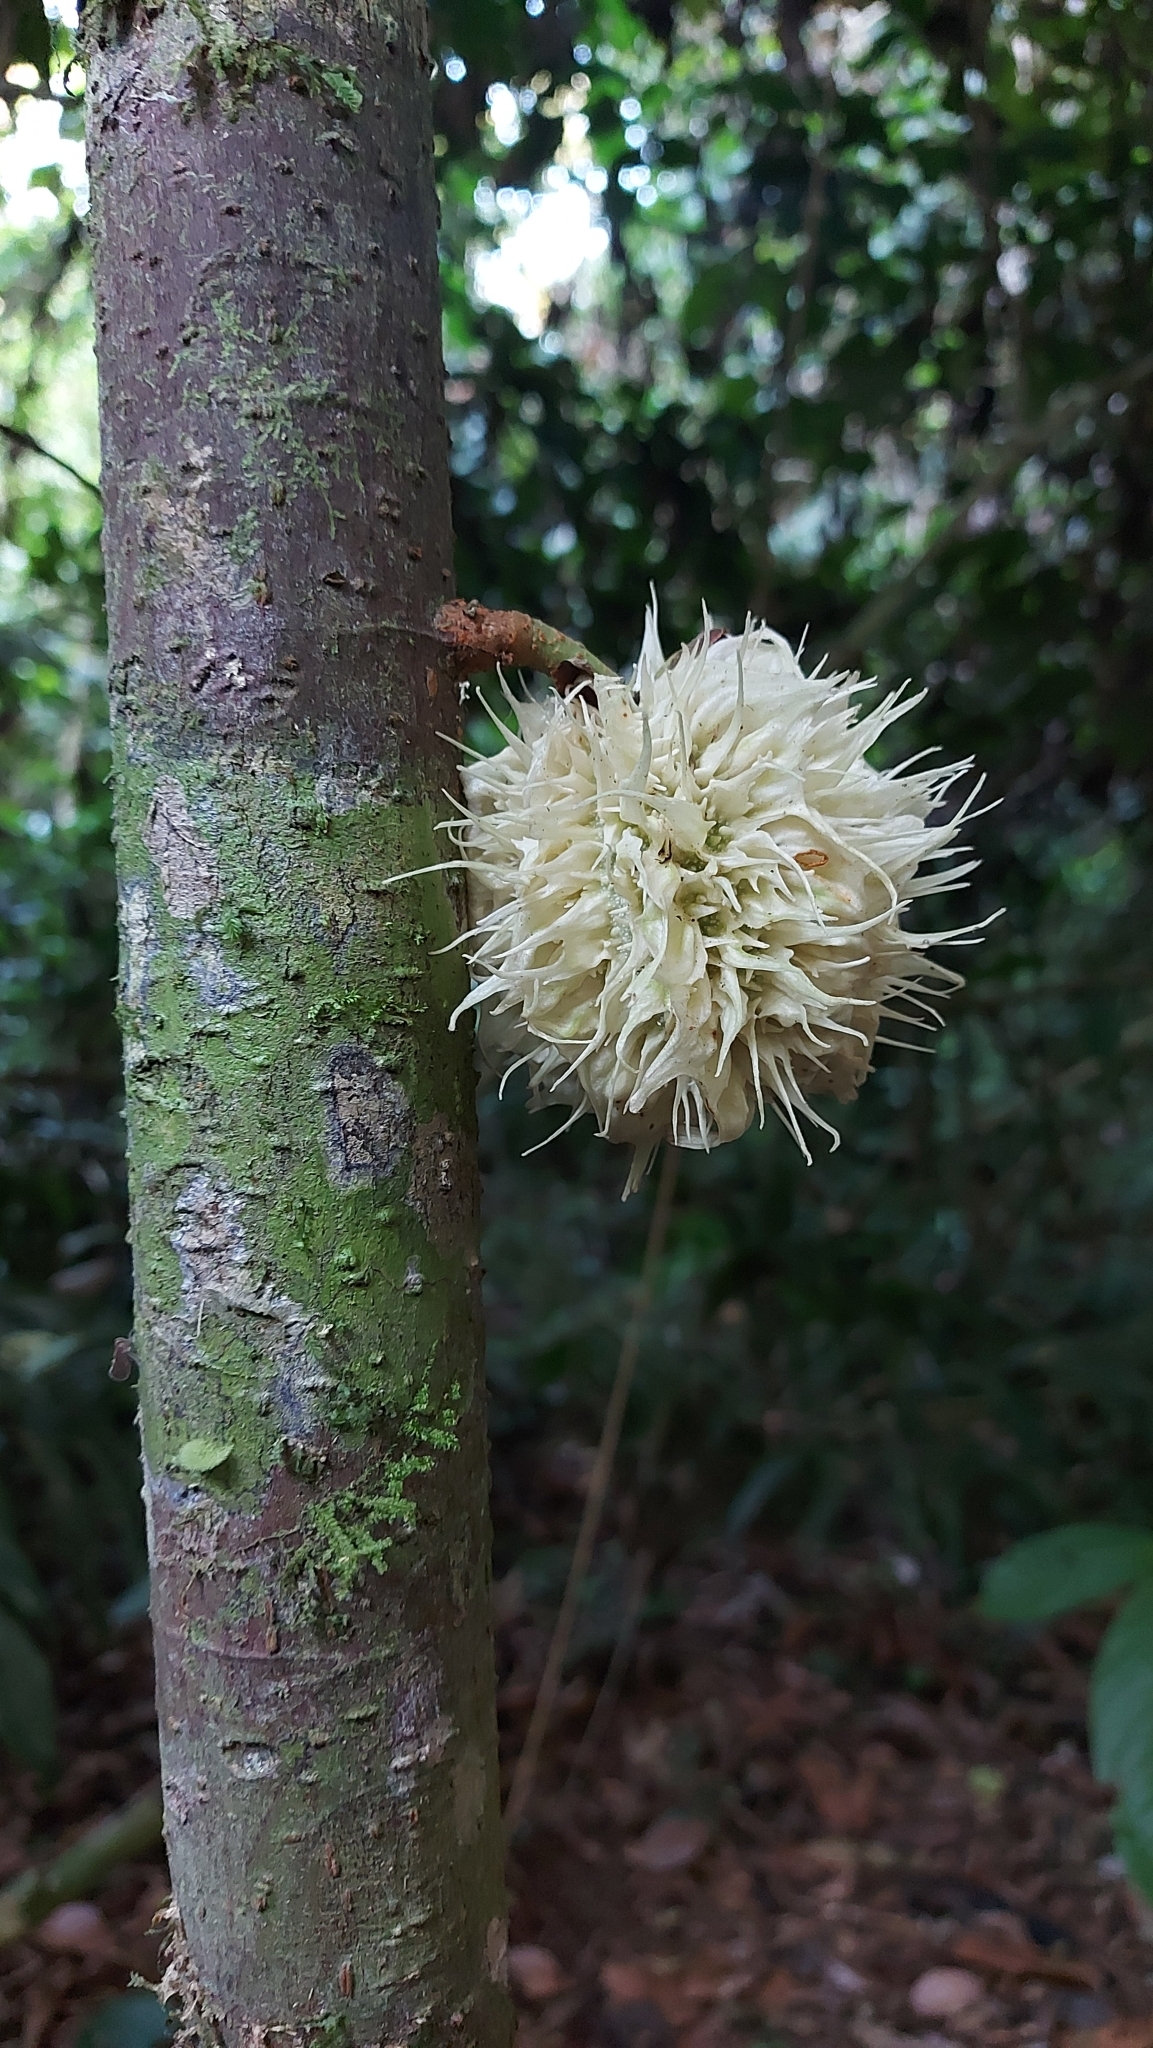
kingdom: Plantae
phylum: Tracheophyta
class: Magnoliopsida
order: Malpighiales
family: Achariaceae
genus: Carpotroche
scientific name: Carpotroche longifolia
